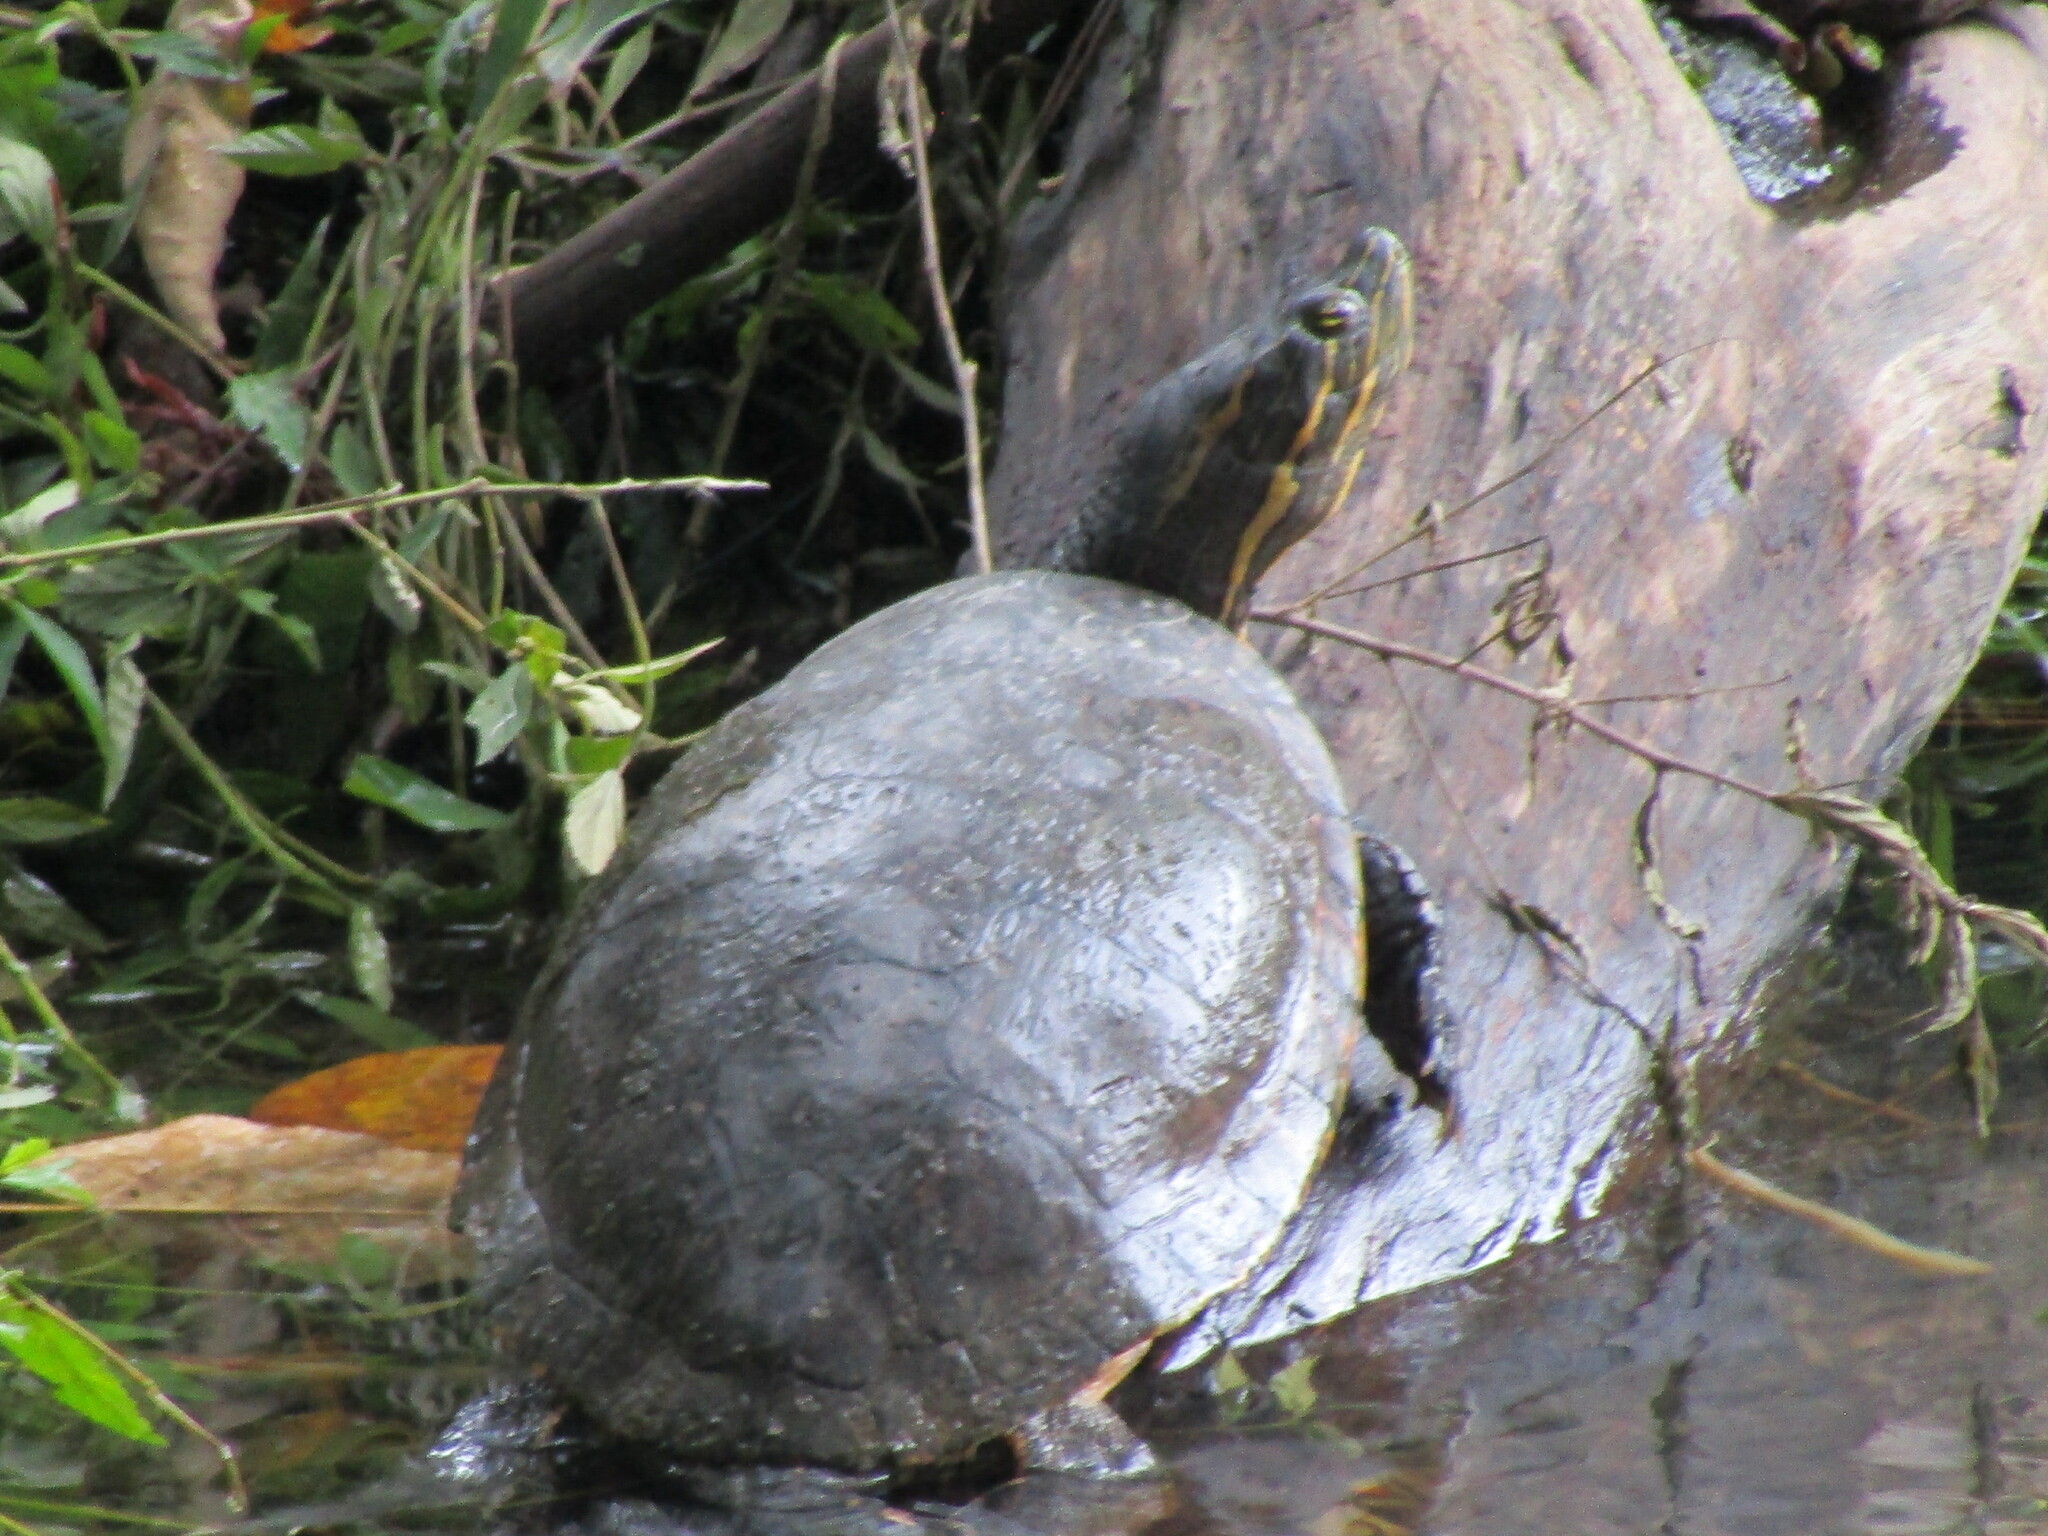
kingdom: Animalia
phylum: Chordata
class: Testudines
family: Emydidae
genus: Trachemys
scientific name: Trachemys grayi
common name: Gray's slider
